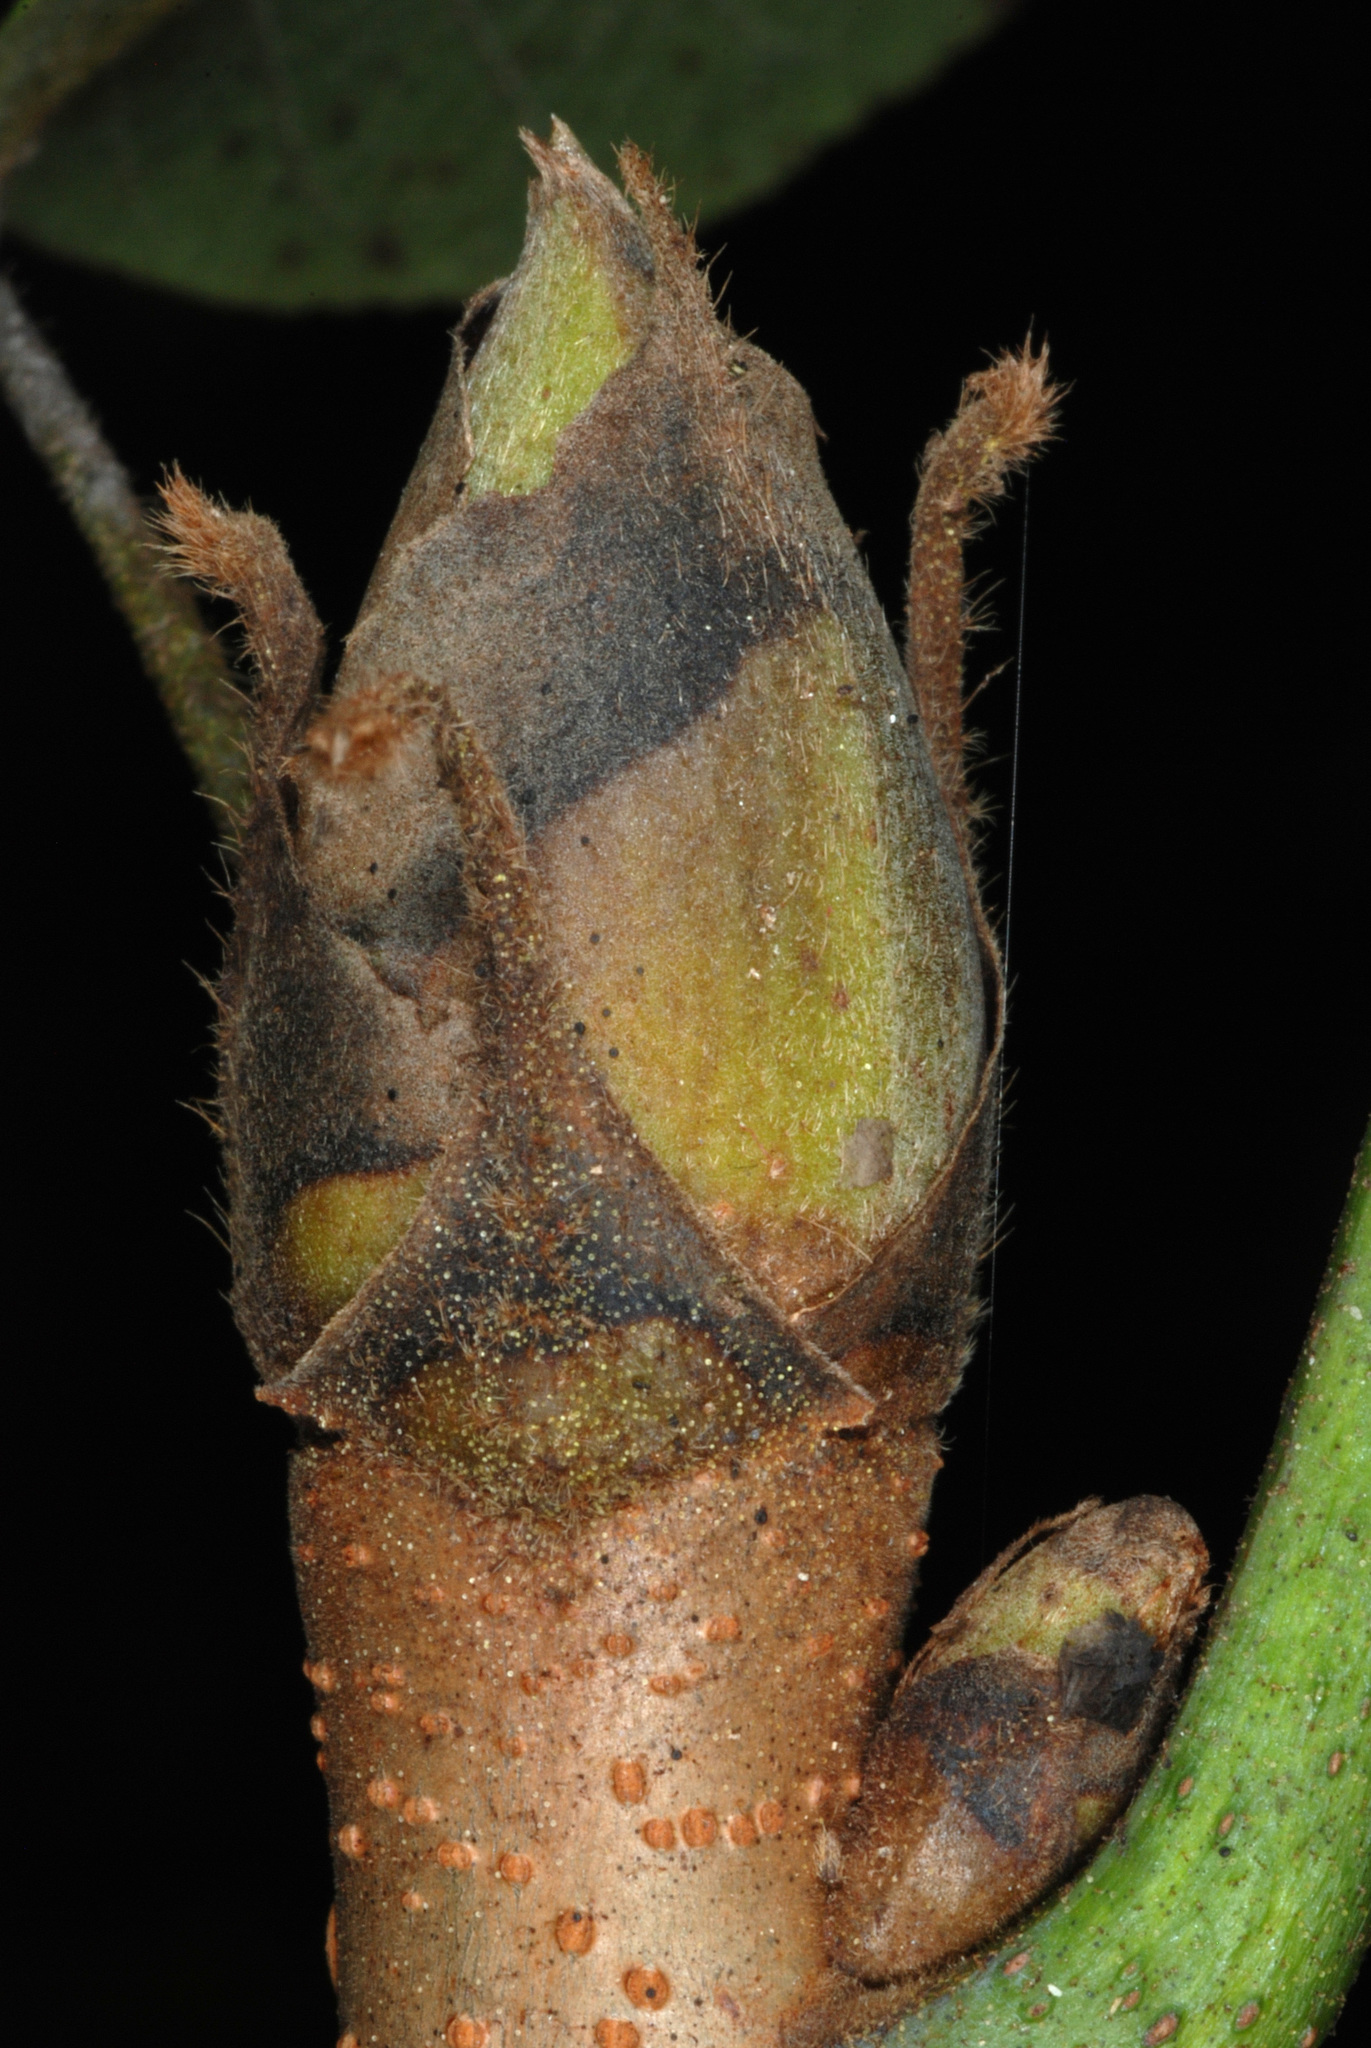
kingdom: Plantae
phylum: Tracheophyta
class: Magnoliopsida
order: Fagales
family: Juglandaceae
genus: Carya
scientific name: Carya laciniosa
